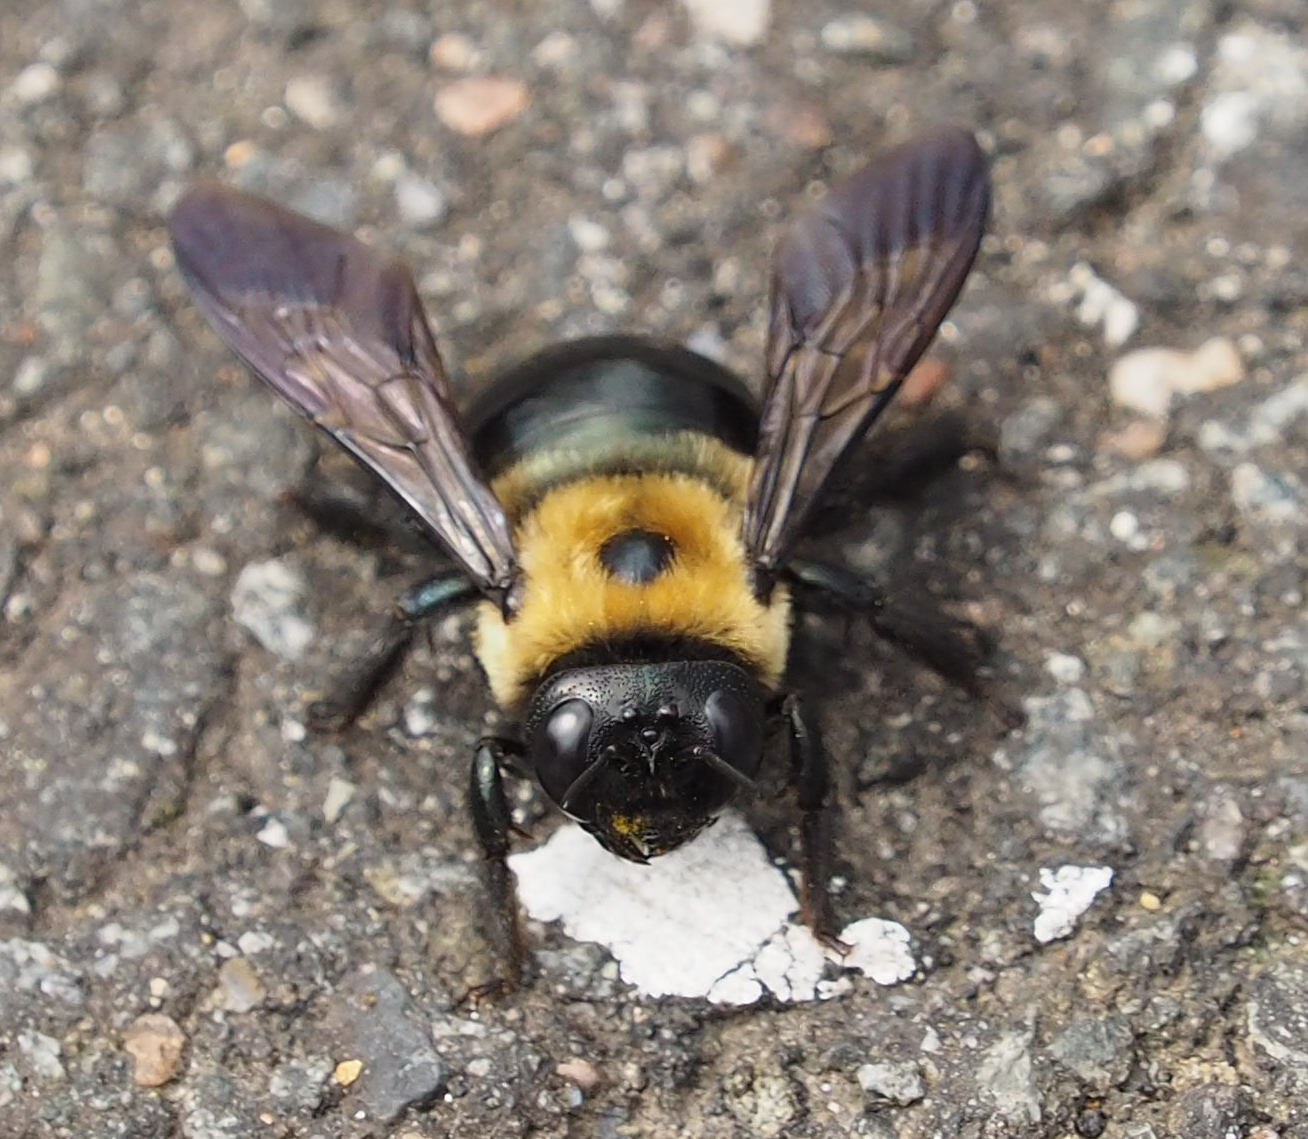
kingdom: Animalia
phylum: Arthropoda
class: Insecta
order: Hymenoptera
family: Apidae
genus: Xylocopa
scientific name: Xylocopa virginica
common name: Carpenter bee
